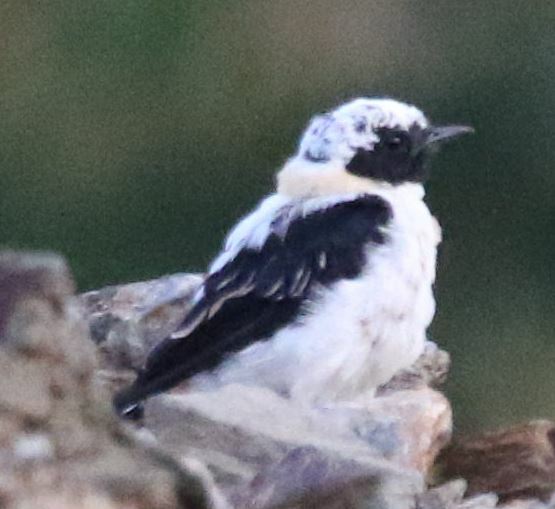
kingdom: Animalia
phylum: Chordata
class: Aves
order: Passeriformes
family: Muscicapidae
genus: Oenanthe
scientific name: Oenanthe hispanica
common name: Black-eared wheatear
